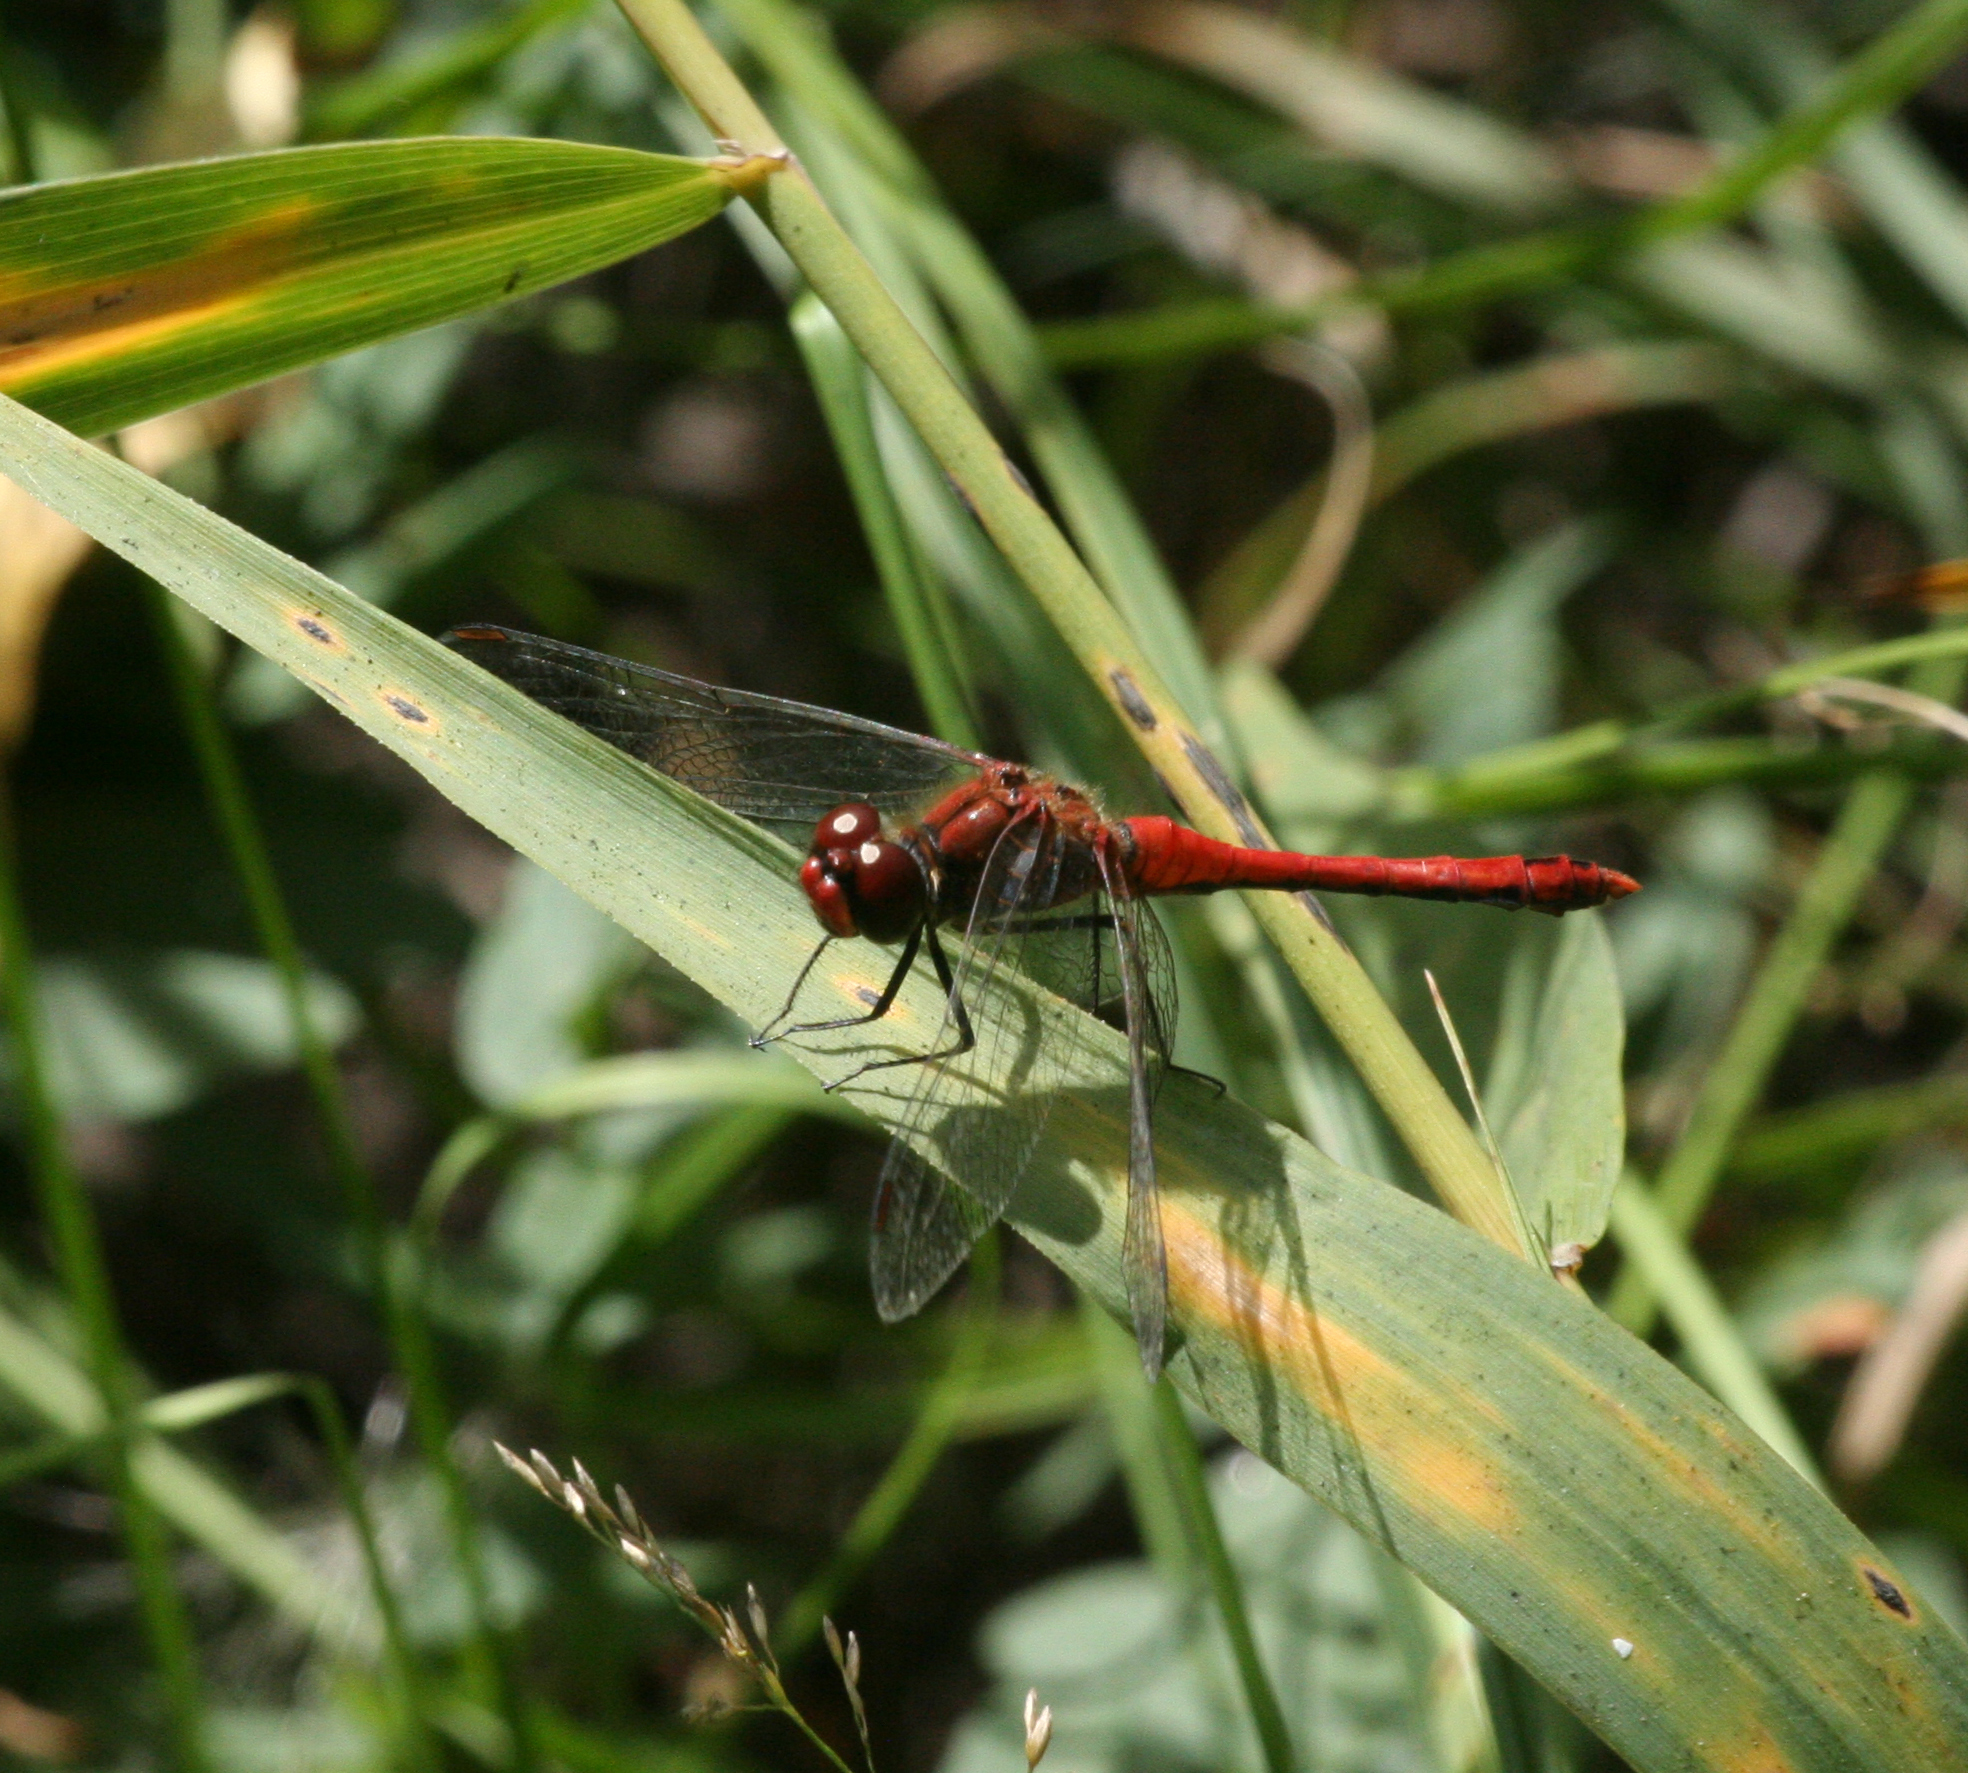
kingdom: Animalia
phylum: Arthropoda
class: Insecta
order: Odonata
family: Libellulidae
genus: Sympetrum
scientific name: Sympetrum sanguineum
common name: Ruddy darter
